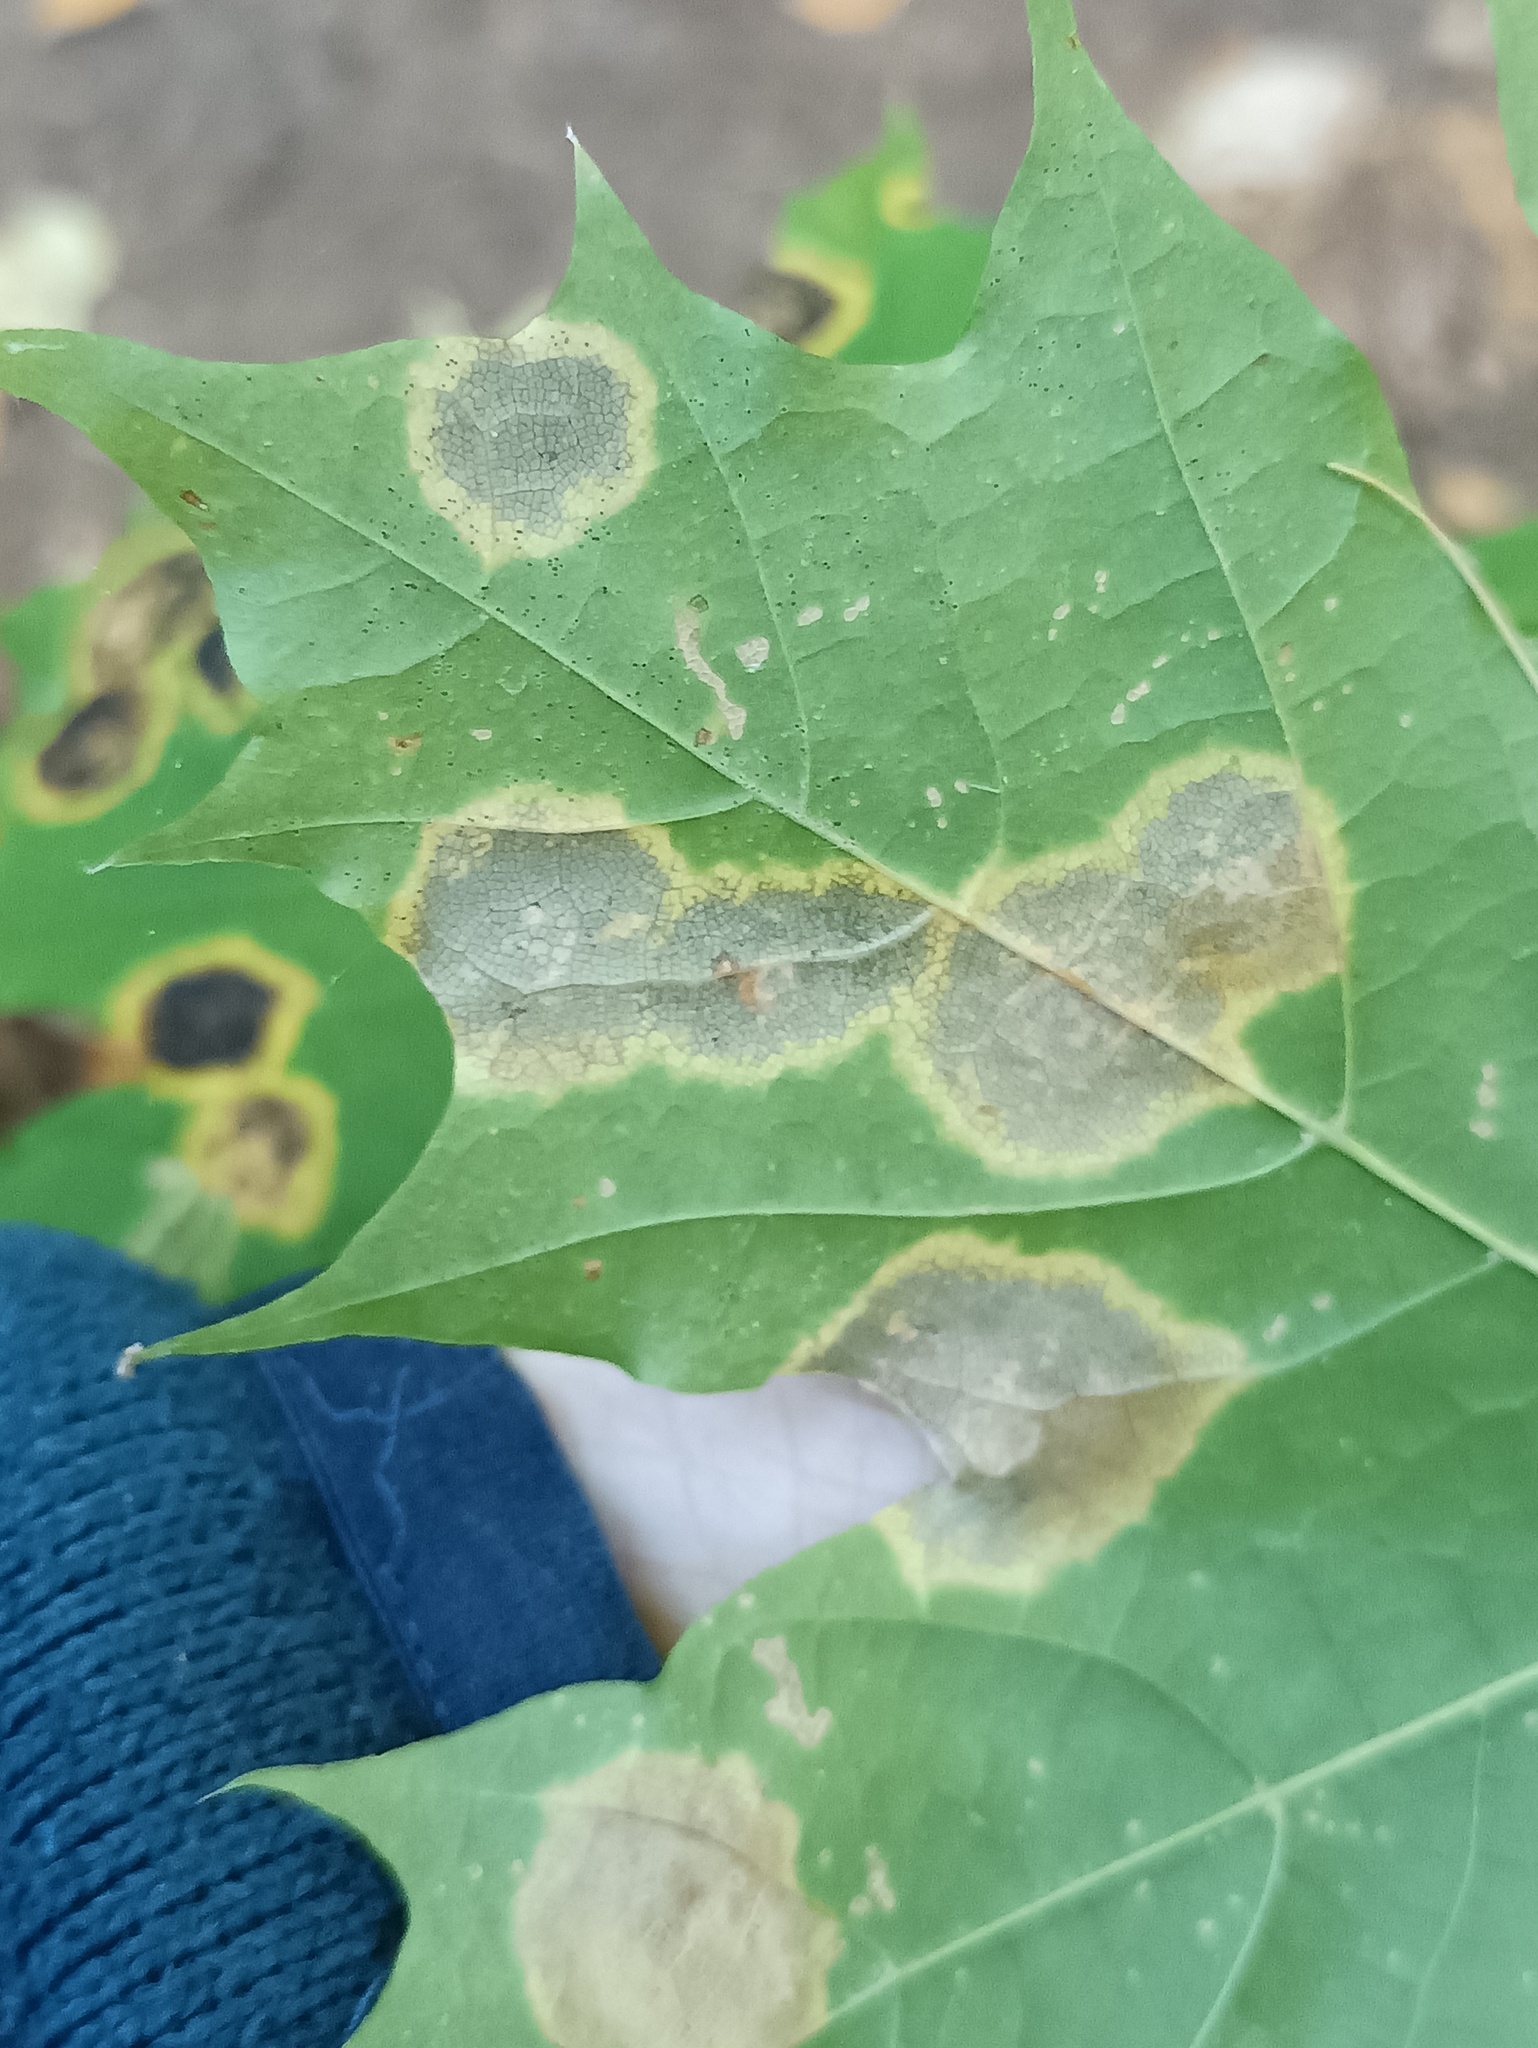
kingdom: Fungi
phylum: Ascomycota
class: Leotiomycetes
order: Rhytismatales
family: Rhytismataceae
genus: Rhytisma
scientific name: Rhytisma acerinum
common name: European tar spot
